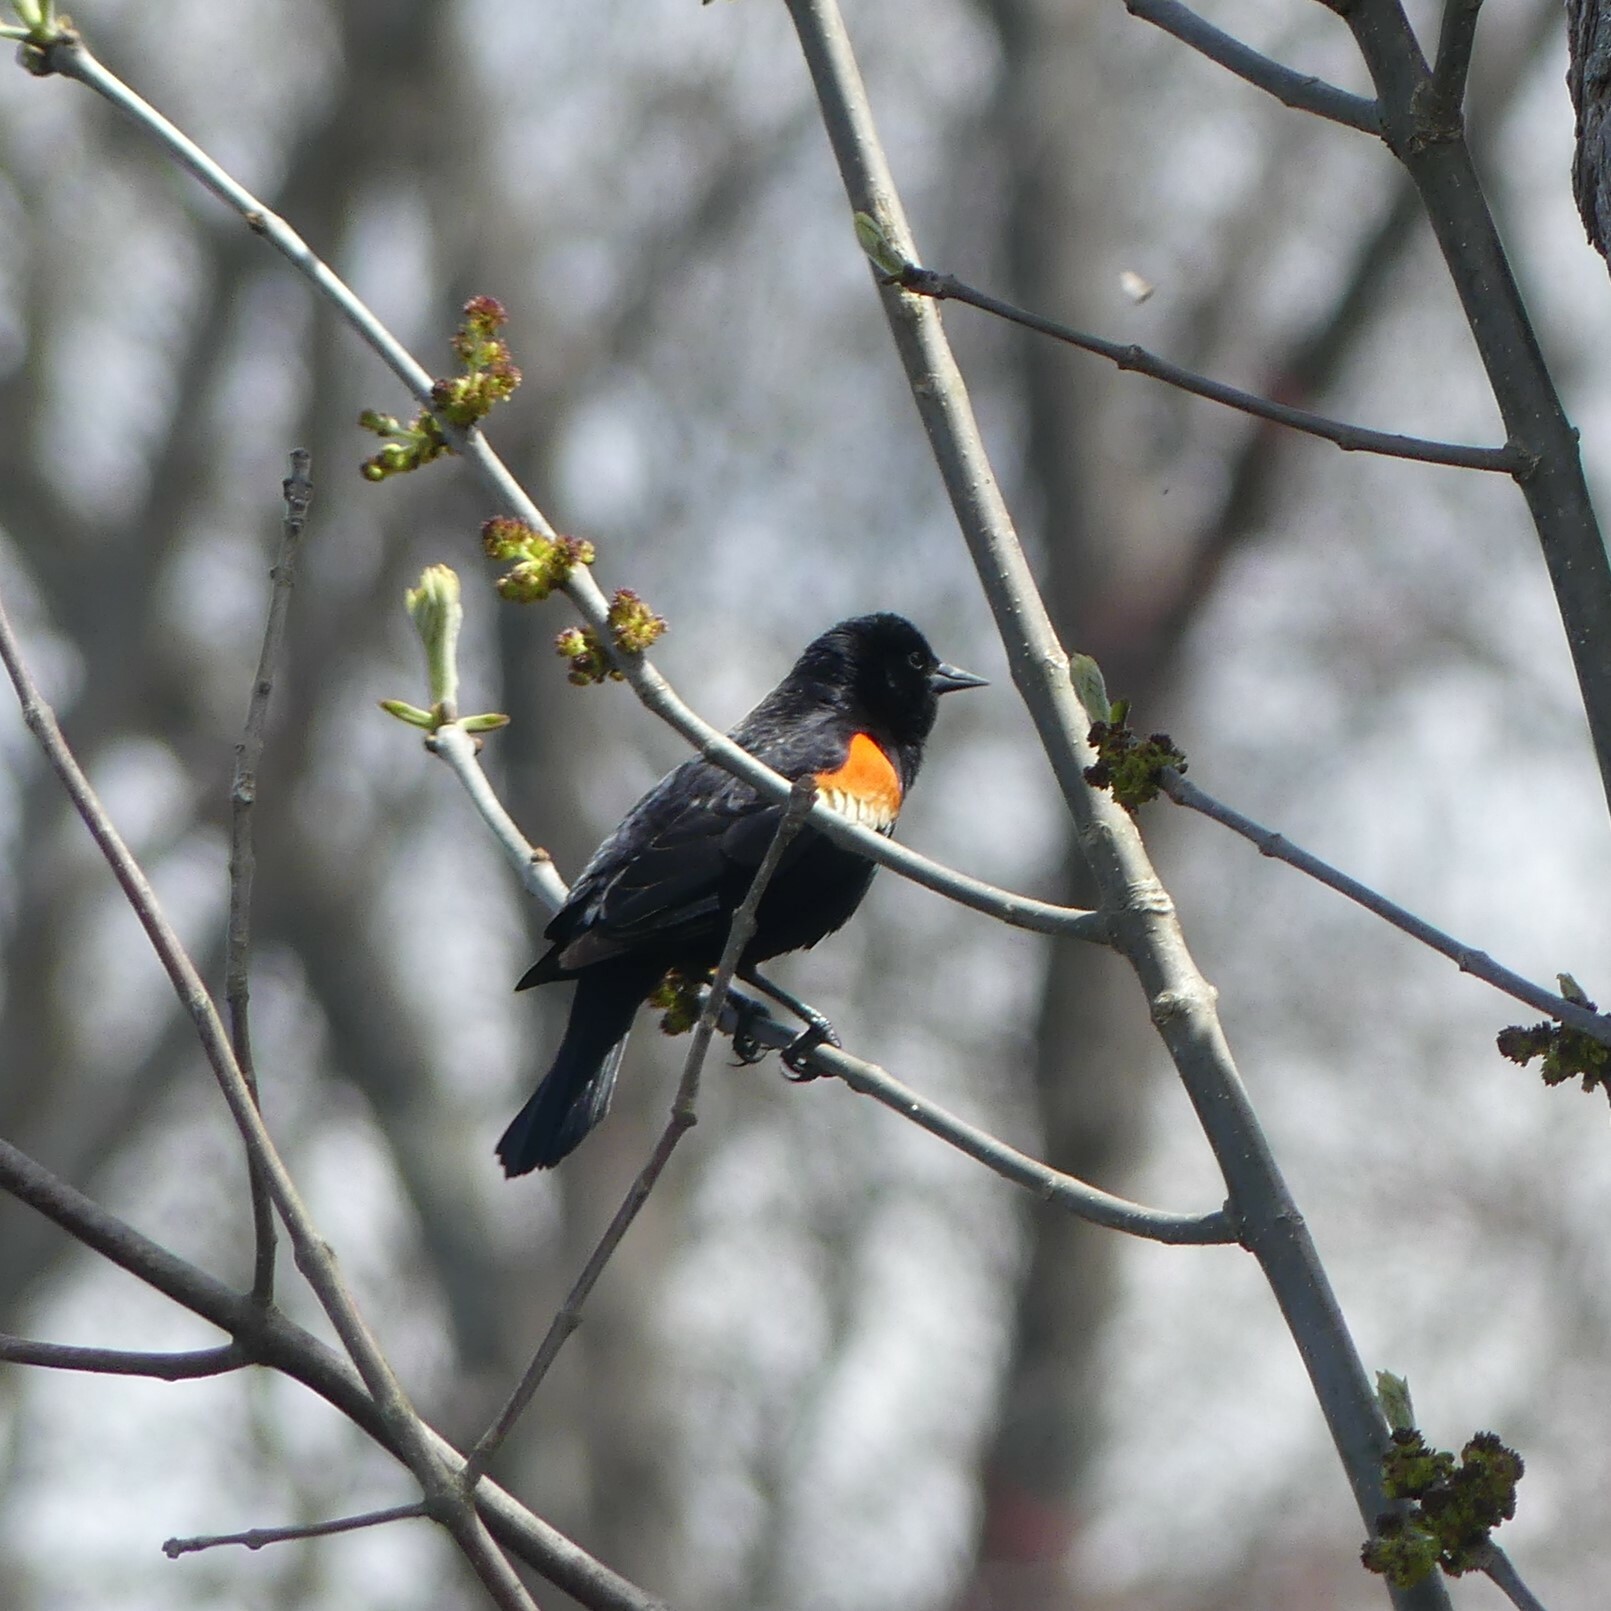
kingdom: Animalia
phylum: Chordata
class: Aves
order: Passeriformes
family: Icteridae
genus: Agelaius
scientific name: Agelaius phoeniceus
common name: Red-winged blackbird
